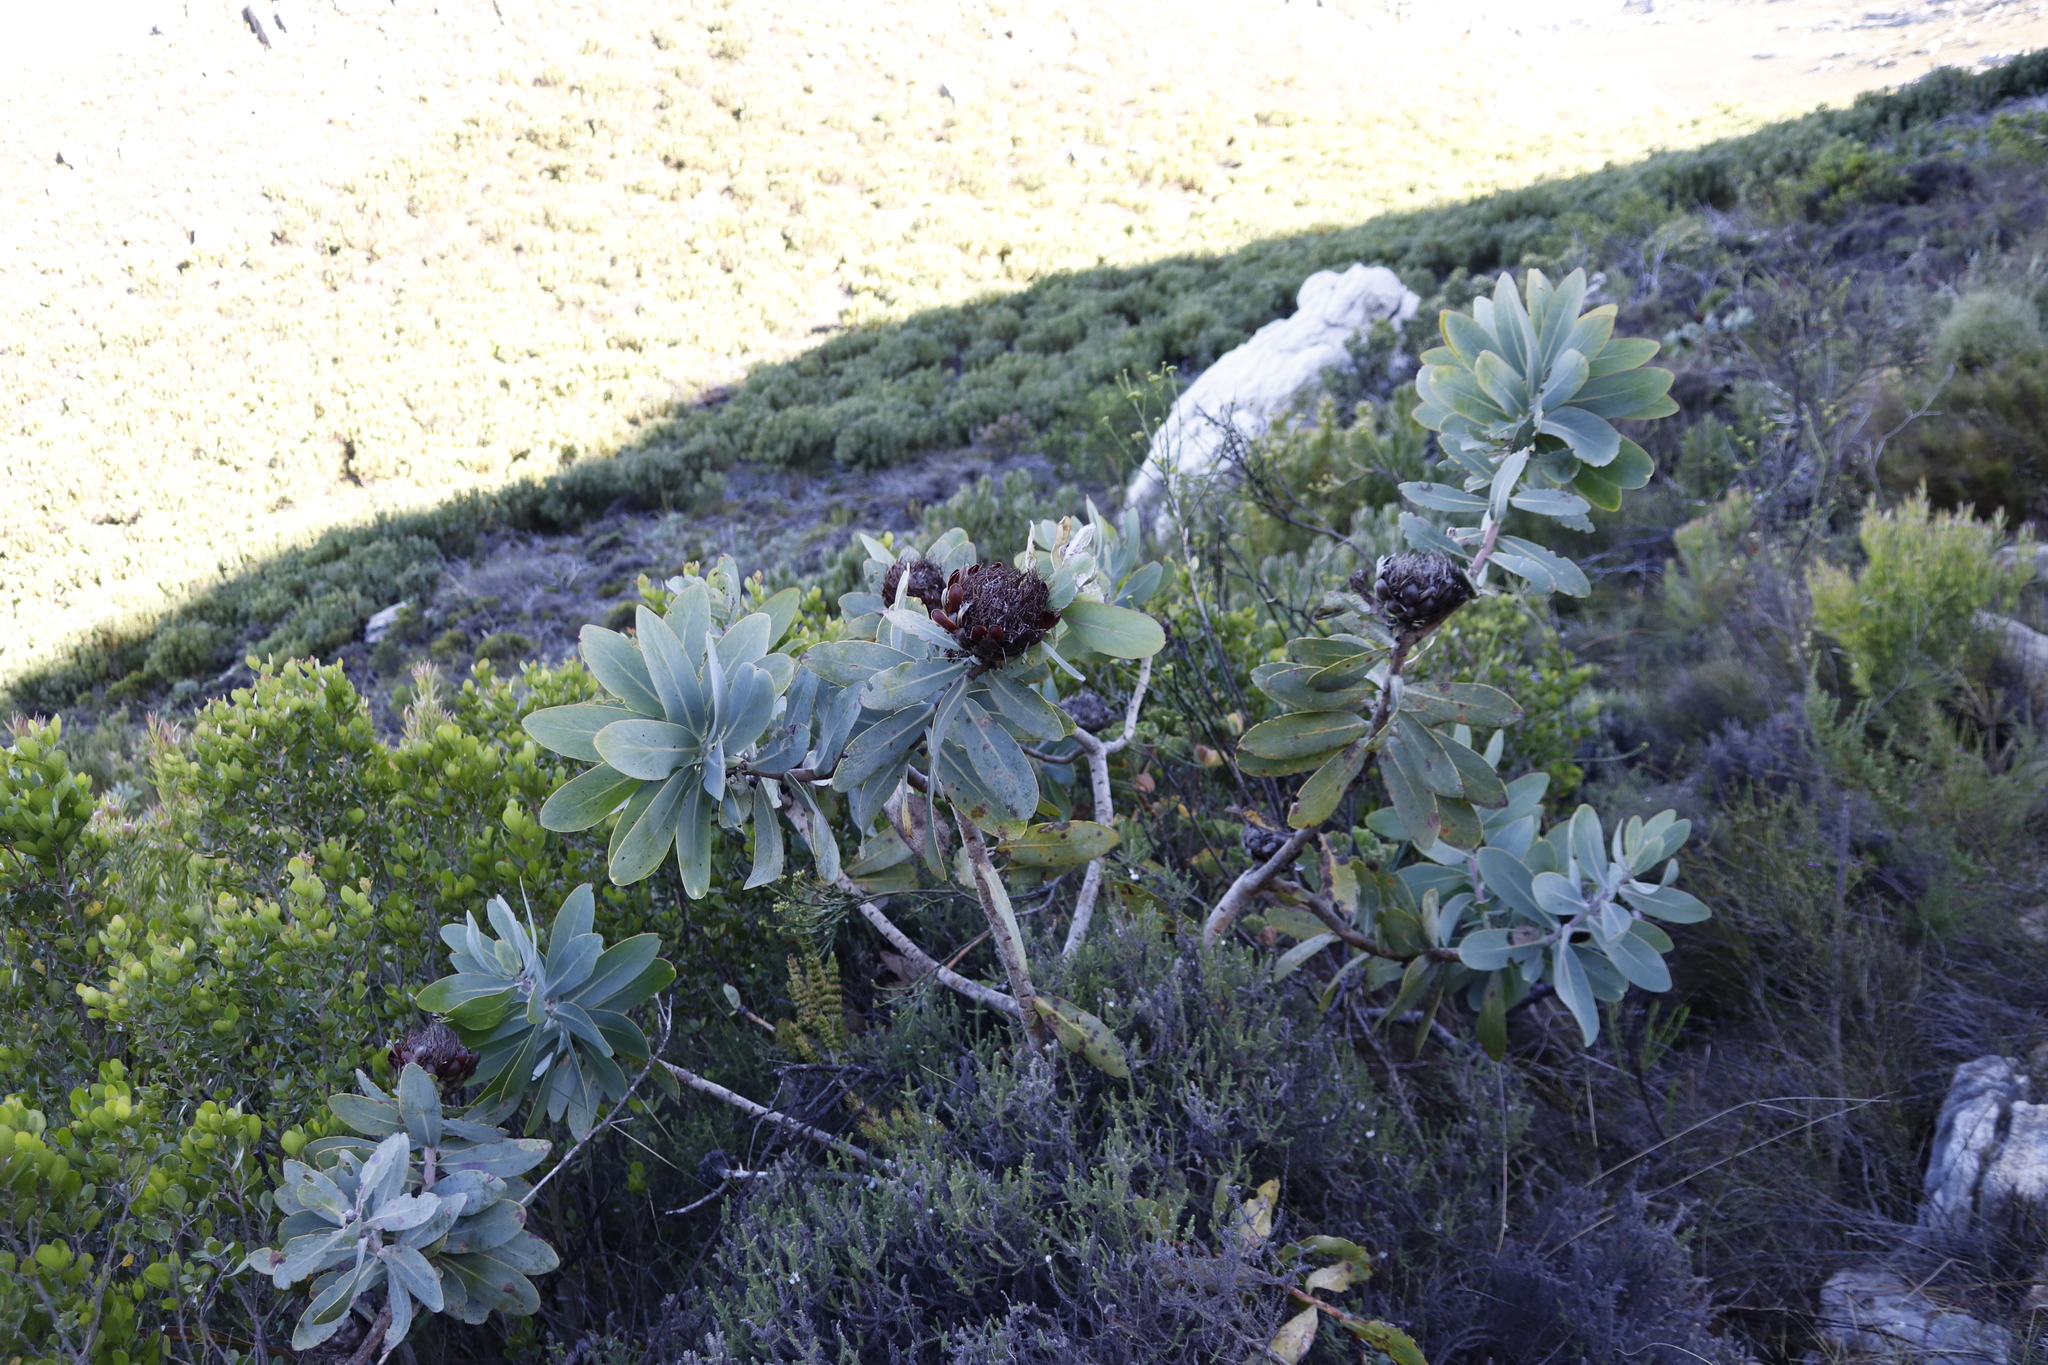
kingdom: Plantae
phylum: Tracheophyta
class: Magnoliopsida
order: Proteales
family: Proteaceae
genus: Protea
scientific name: Protea nitida
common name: Tree protea
